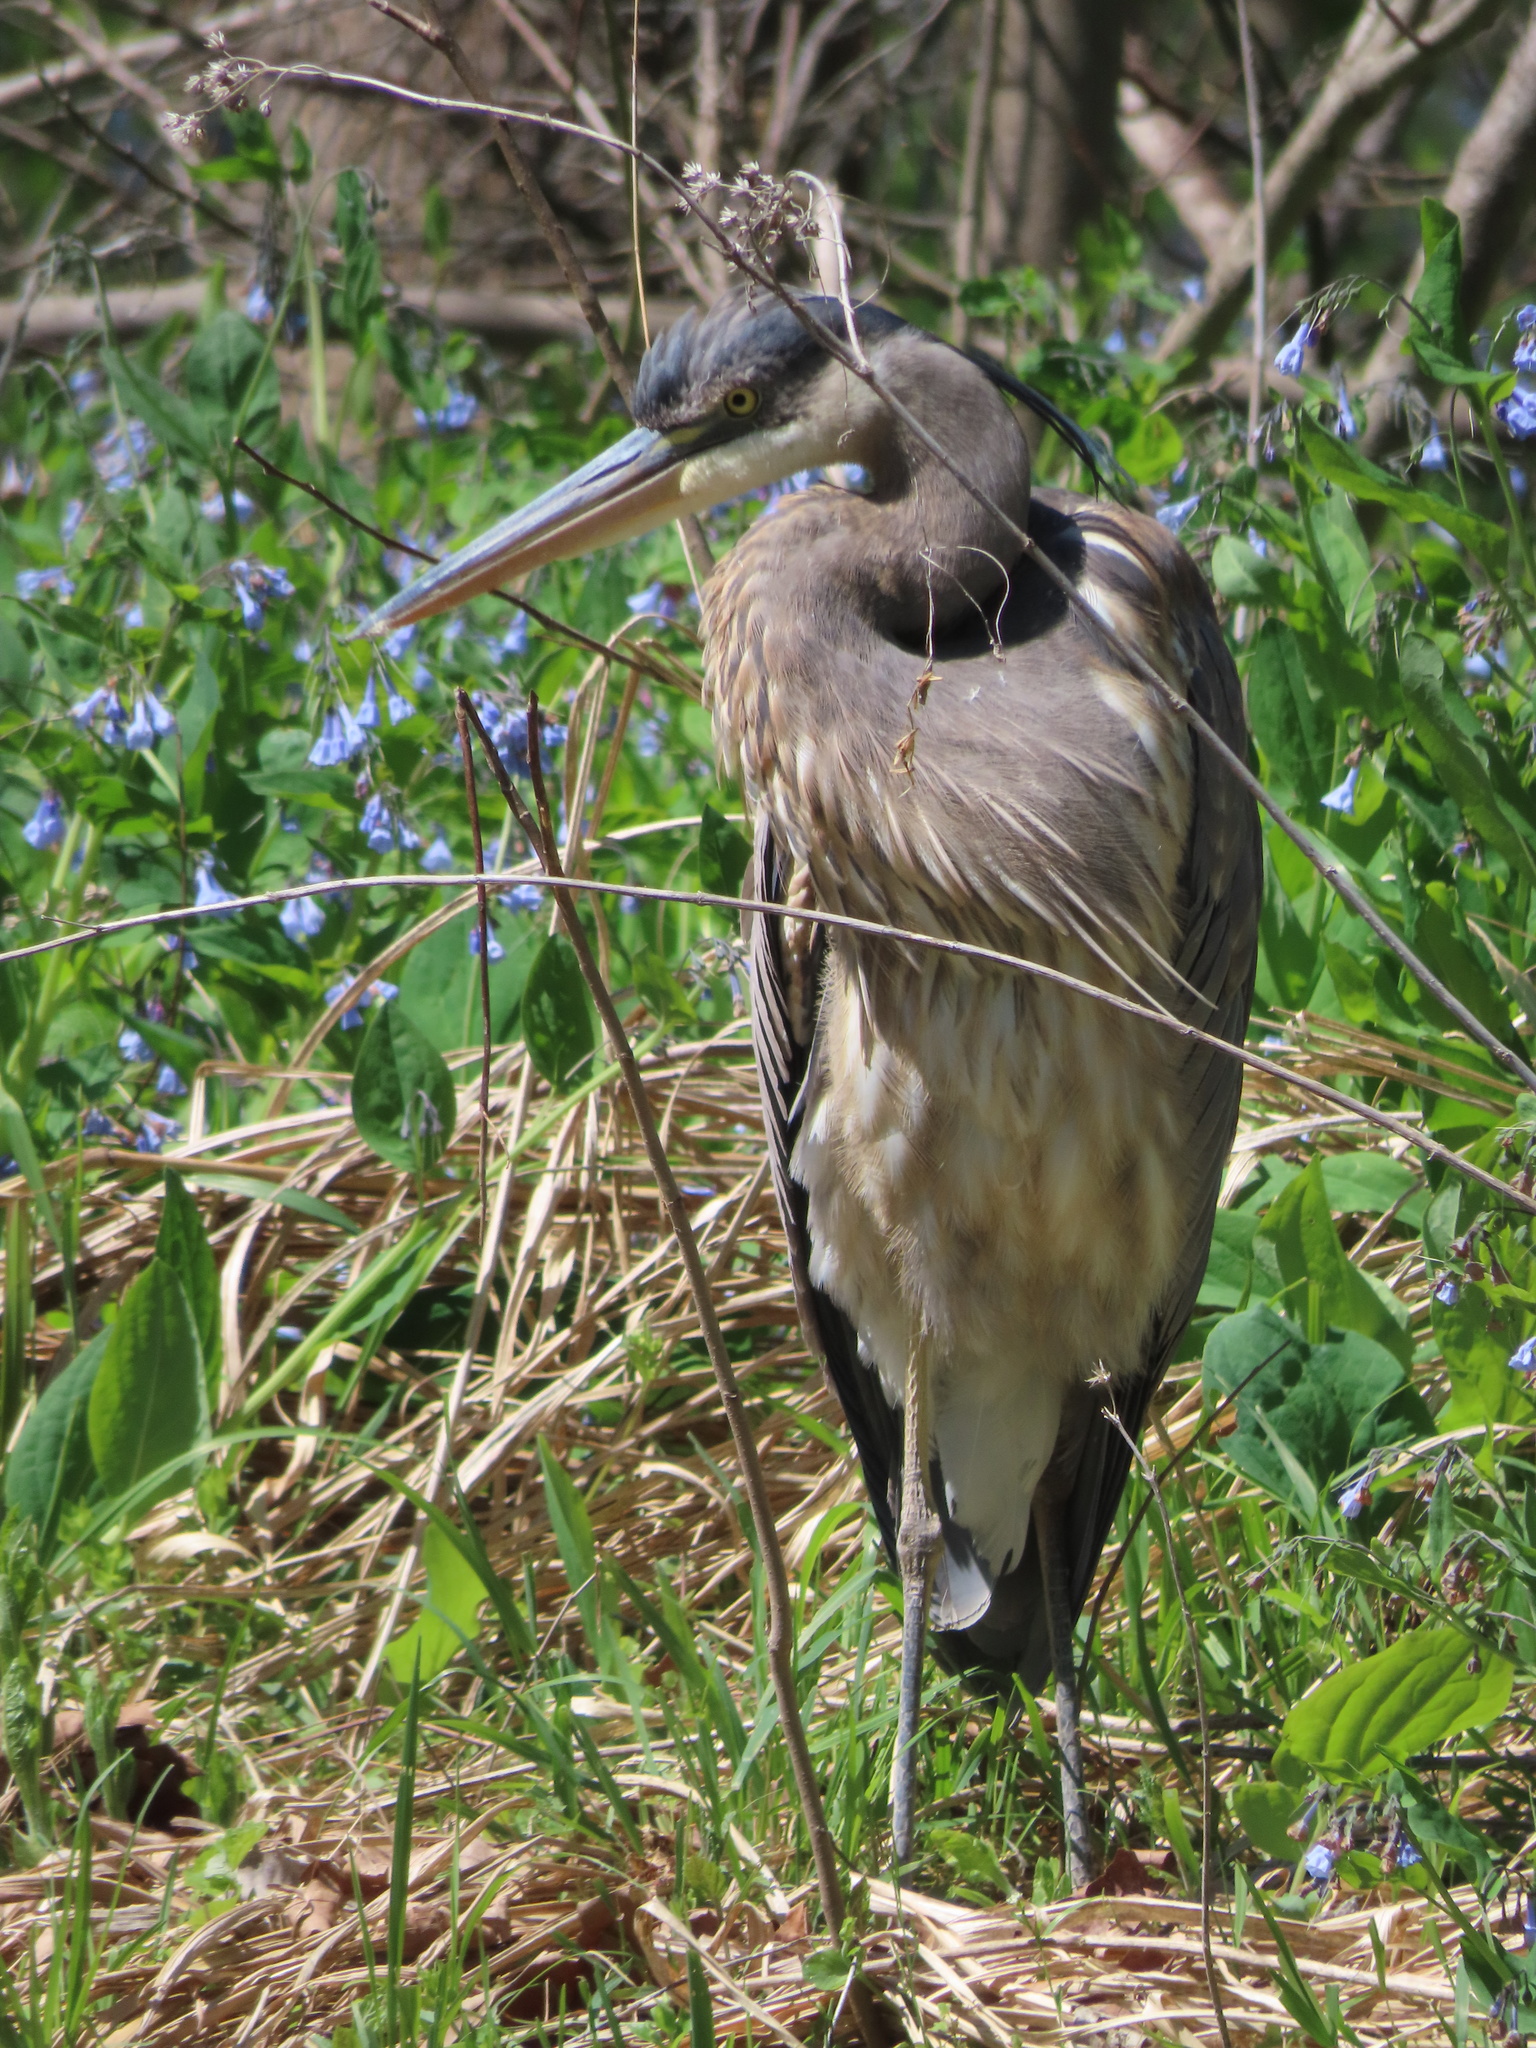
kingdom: Animalia
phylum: Chordata
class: Aves
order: Pelecaniformes
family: Ardeidae
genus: Ardea
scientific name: Ardea herodias
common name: Great blue heron
